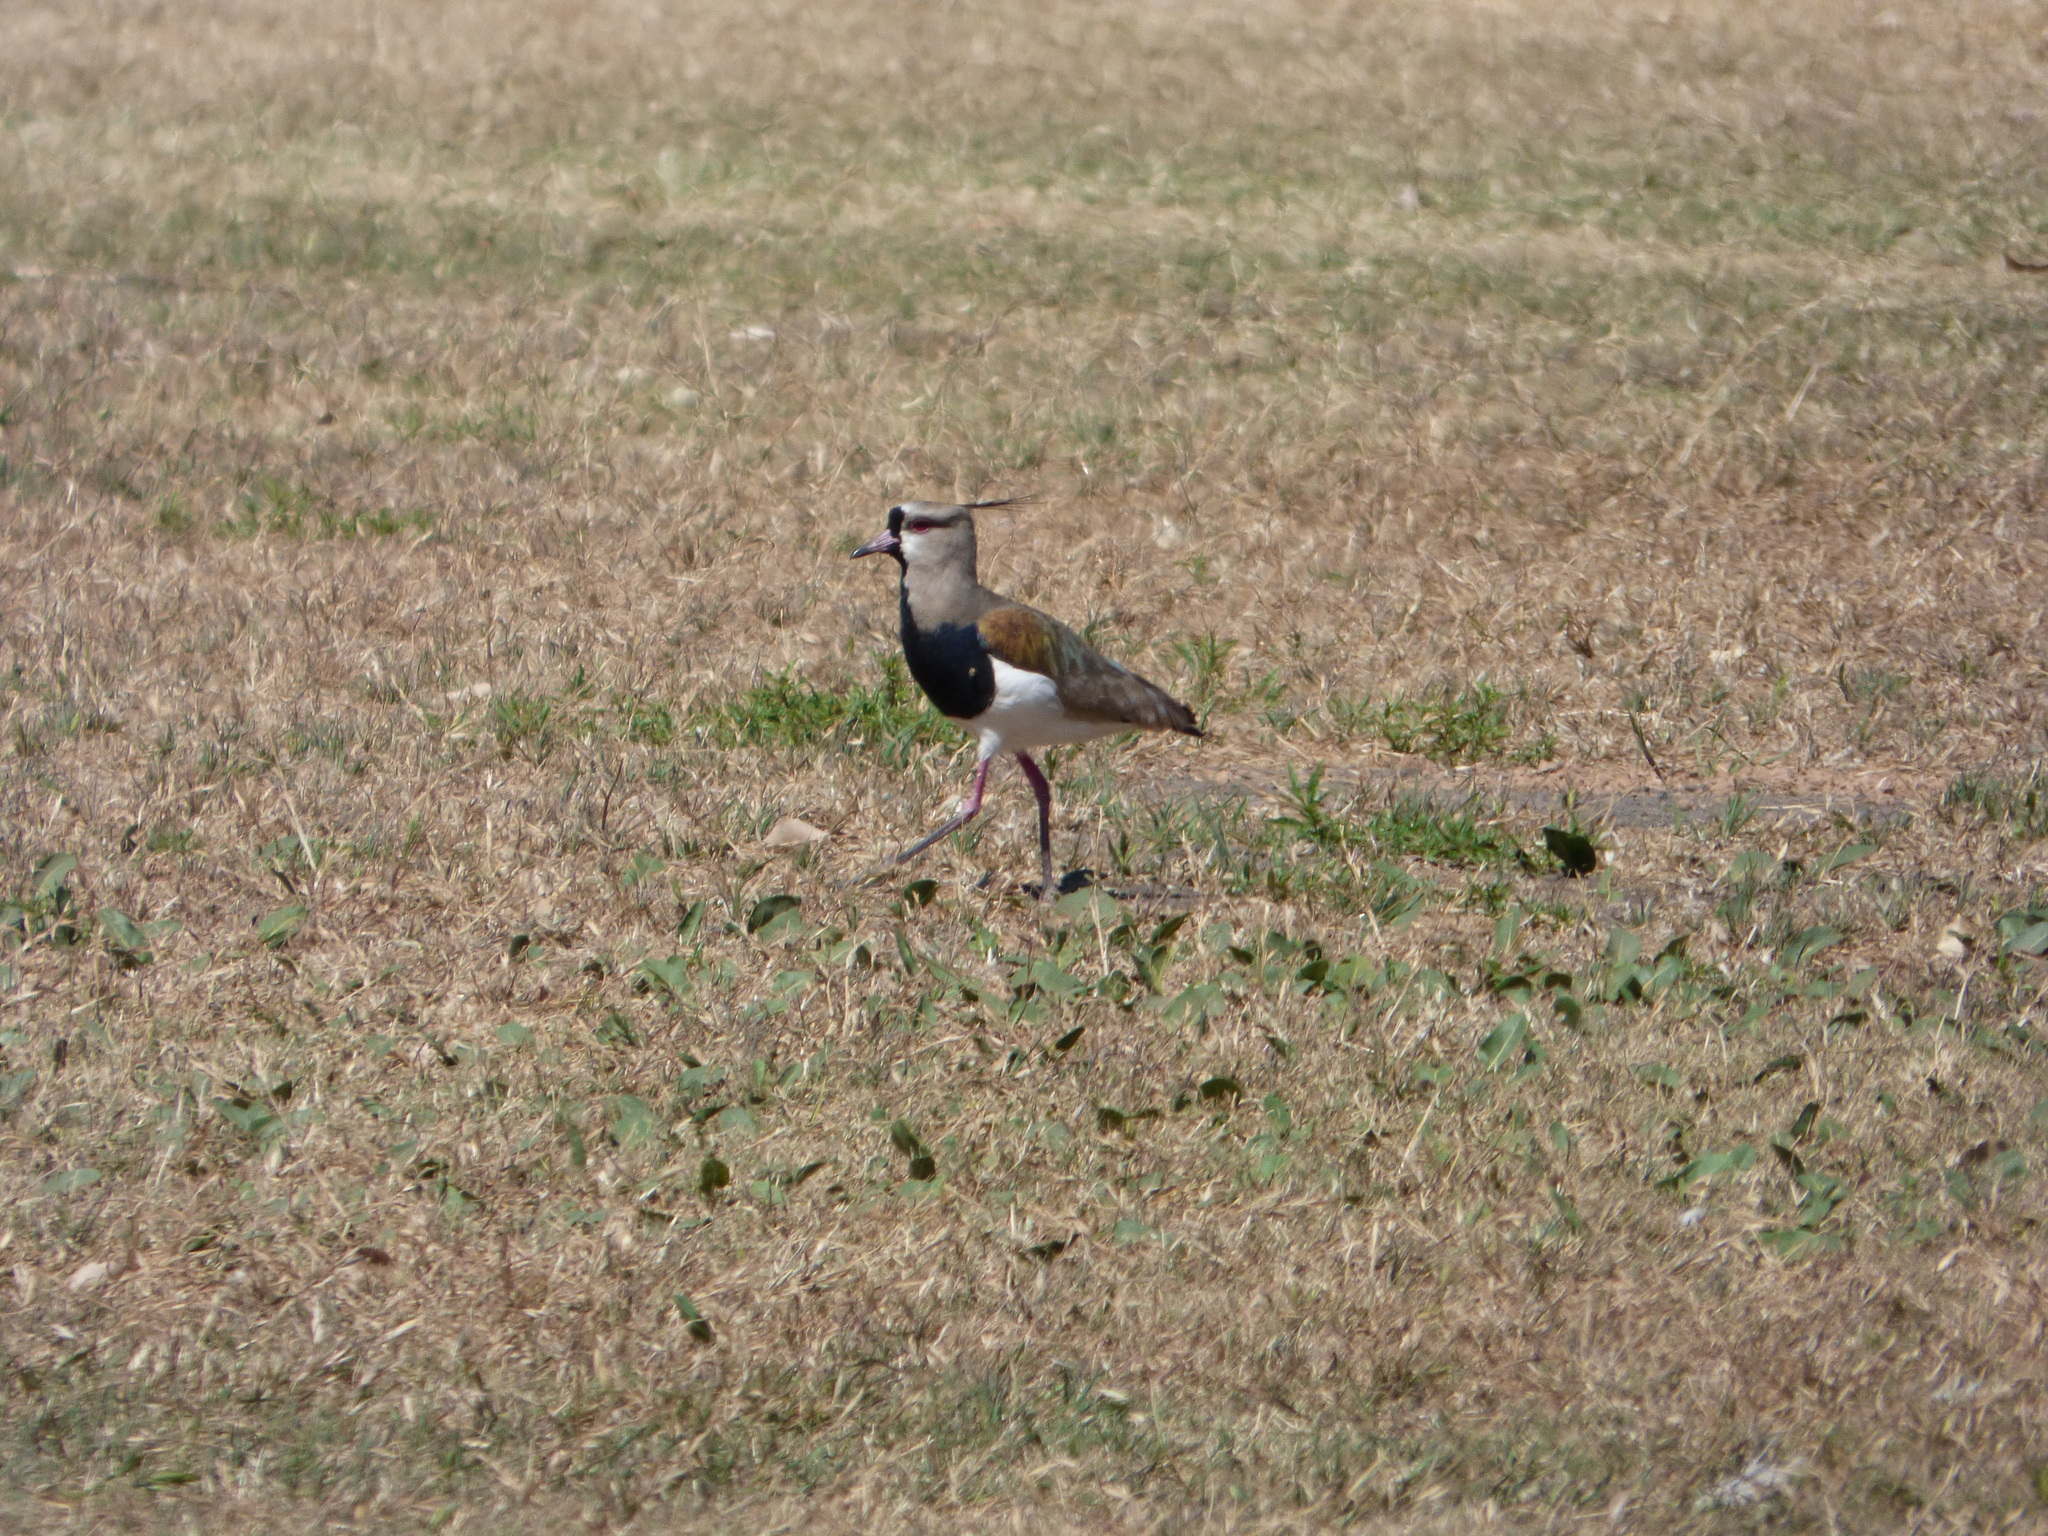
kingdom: Animalia
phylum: Chordata
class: Aves
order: Charadriiformes
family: Charadriidae
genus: Vanellus
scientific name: Vanellus chilensis
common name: Southern lapwing
